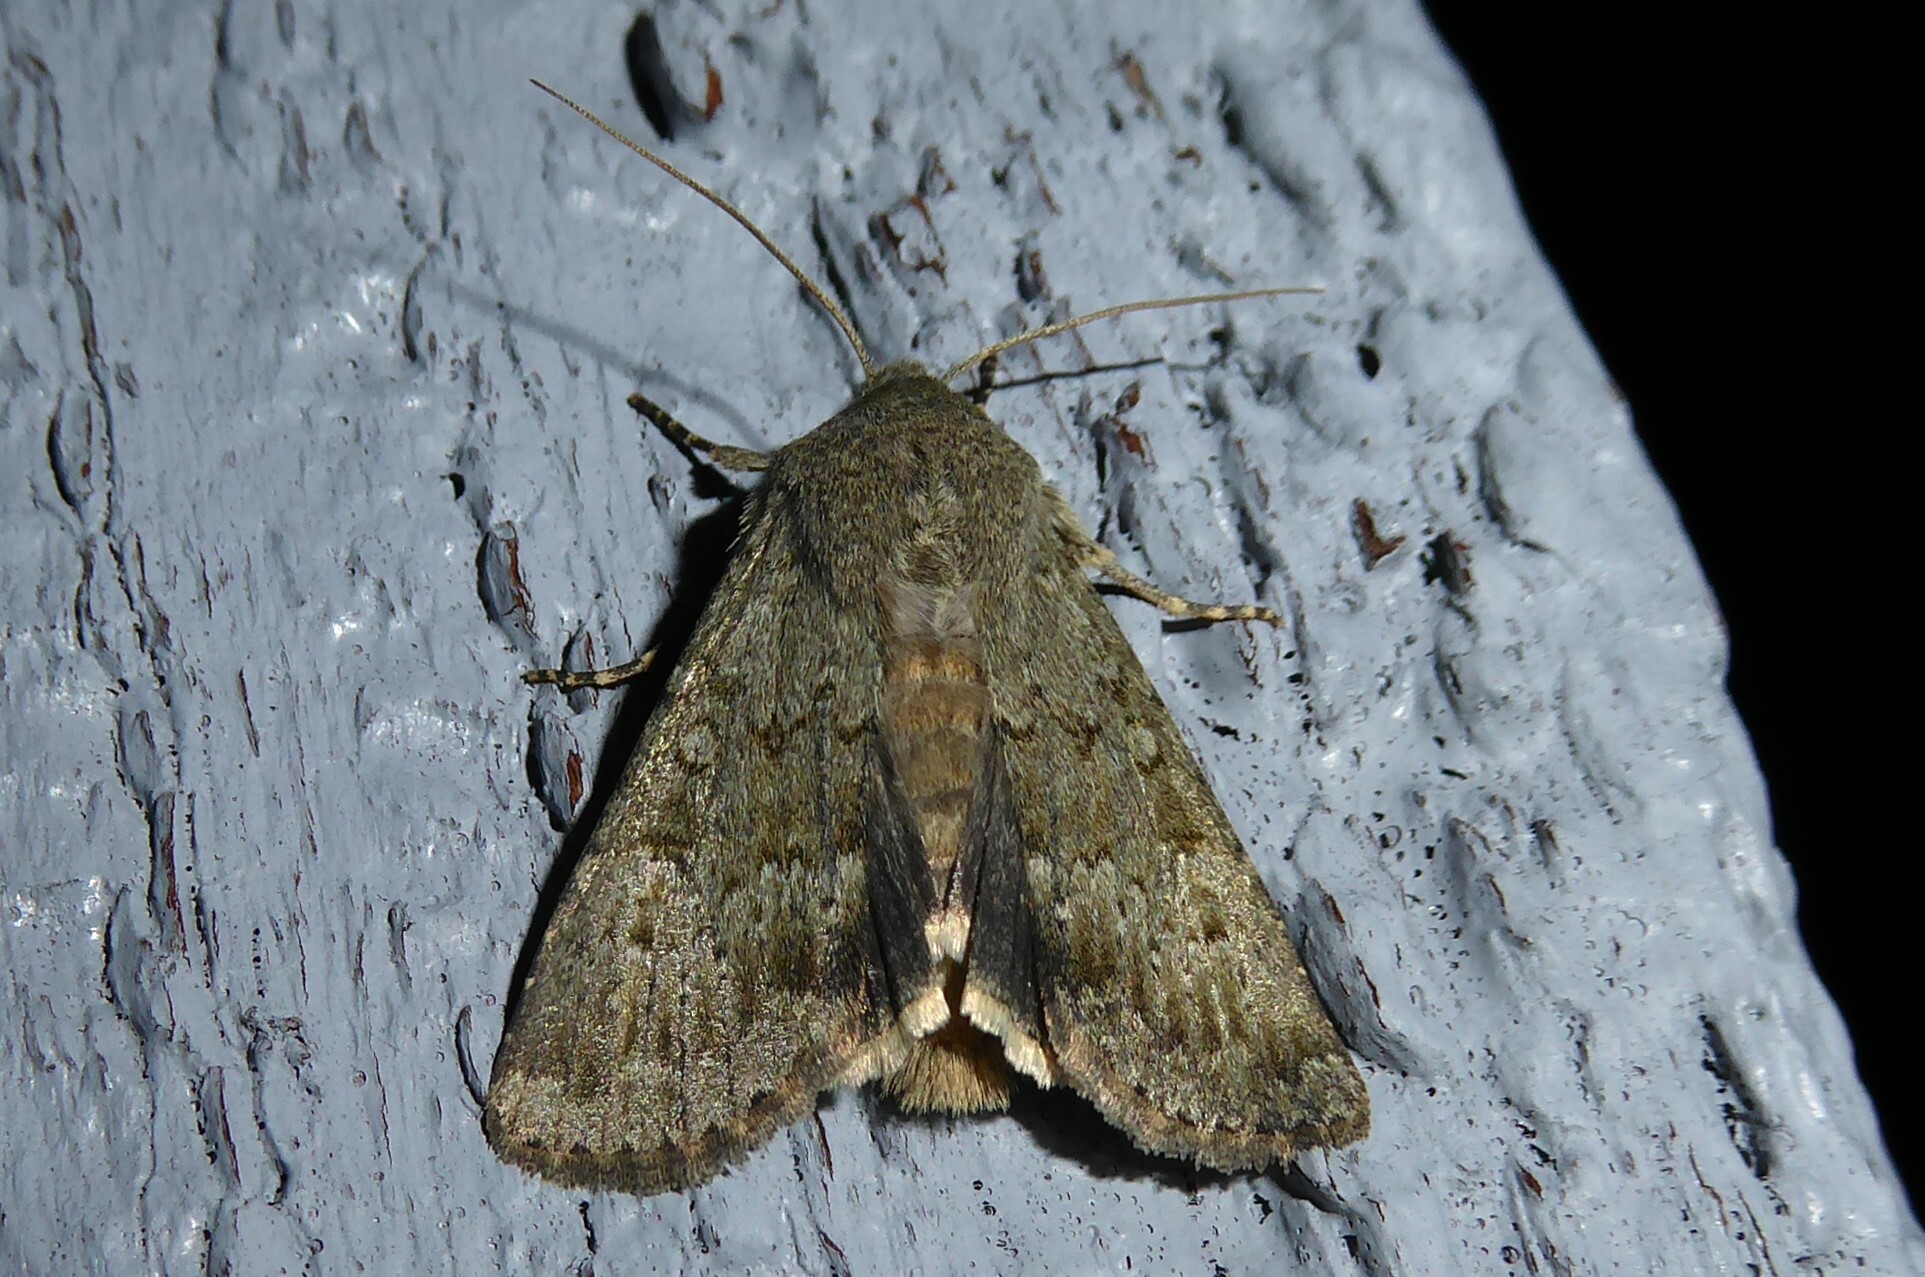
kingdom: Animalia
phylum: Arthropoda
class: Insecta
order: Lepidoptera
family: Noctuidae
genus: Ichneutica
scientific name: Ichneutica moderata
